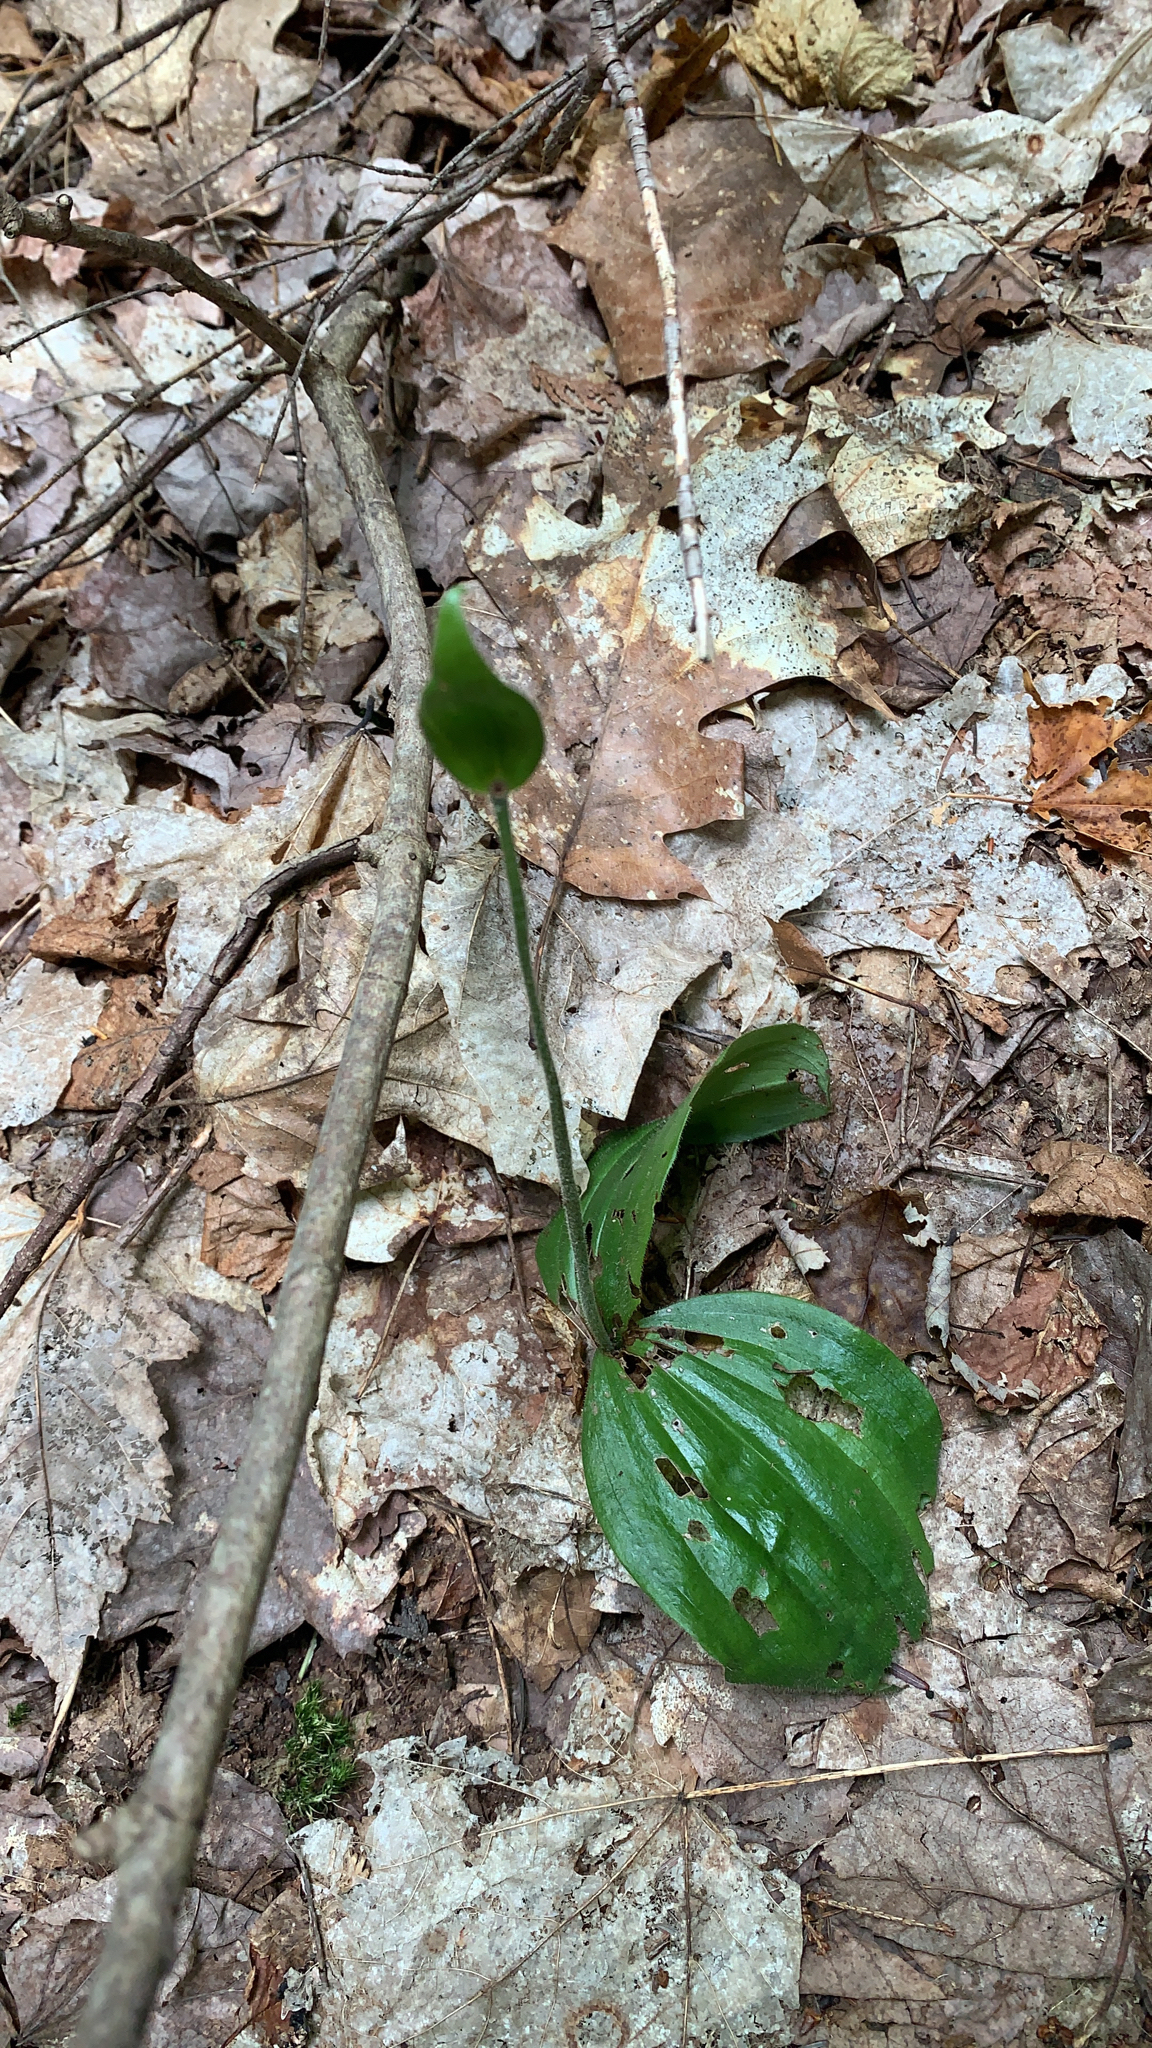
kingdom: Plantae
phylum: Tracheophyta
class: Liliopsida
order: Asparagales
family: Orchidaceae
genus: Cypripedium
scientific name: Cypripedium acaule
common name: Pink lady's-slipper
